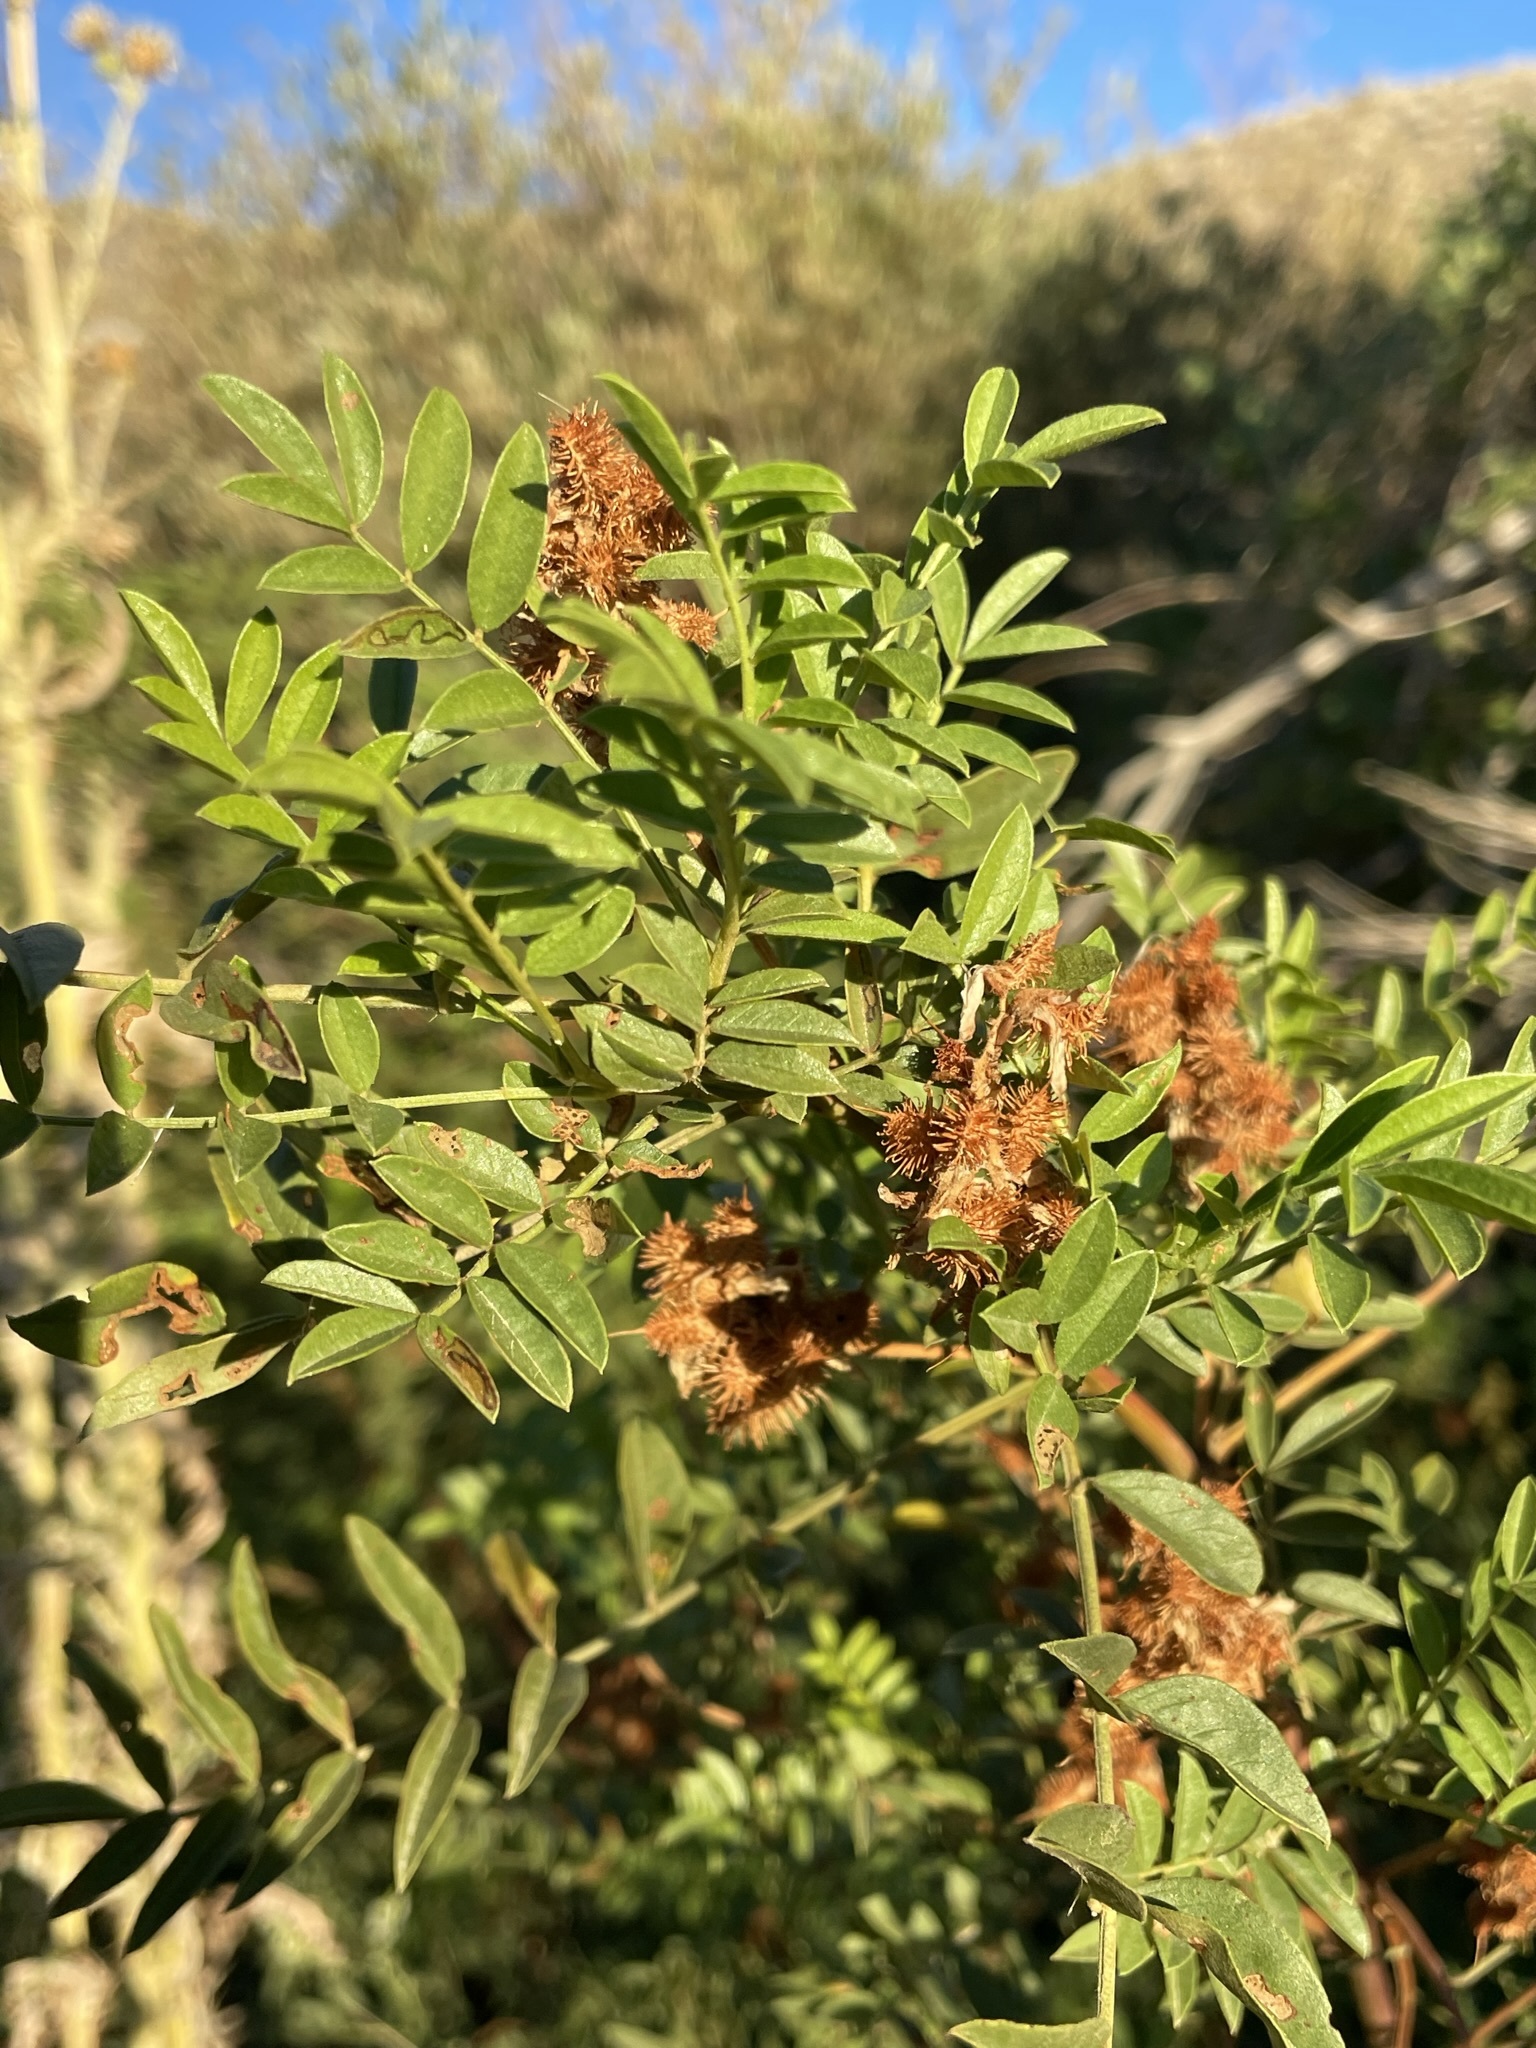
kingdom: Plantae
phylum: Tracheophyta
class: Magnoliopsida
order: Fabales
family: Fabaceae
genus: Glycyrrhiza
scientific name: Glycyrrhiza lepidota
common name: American liquorice
